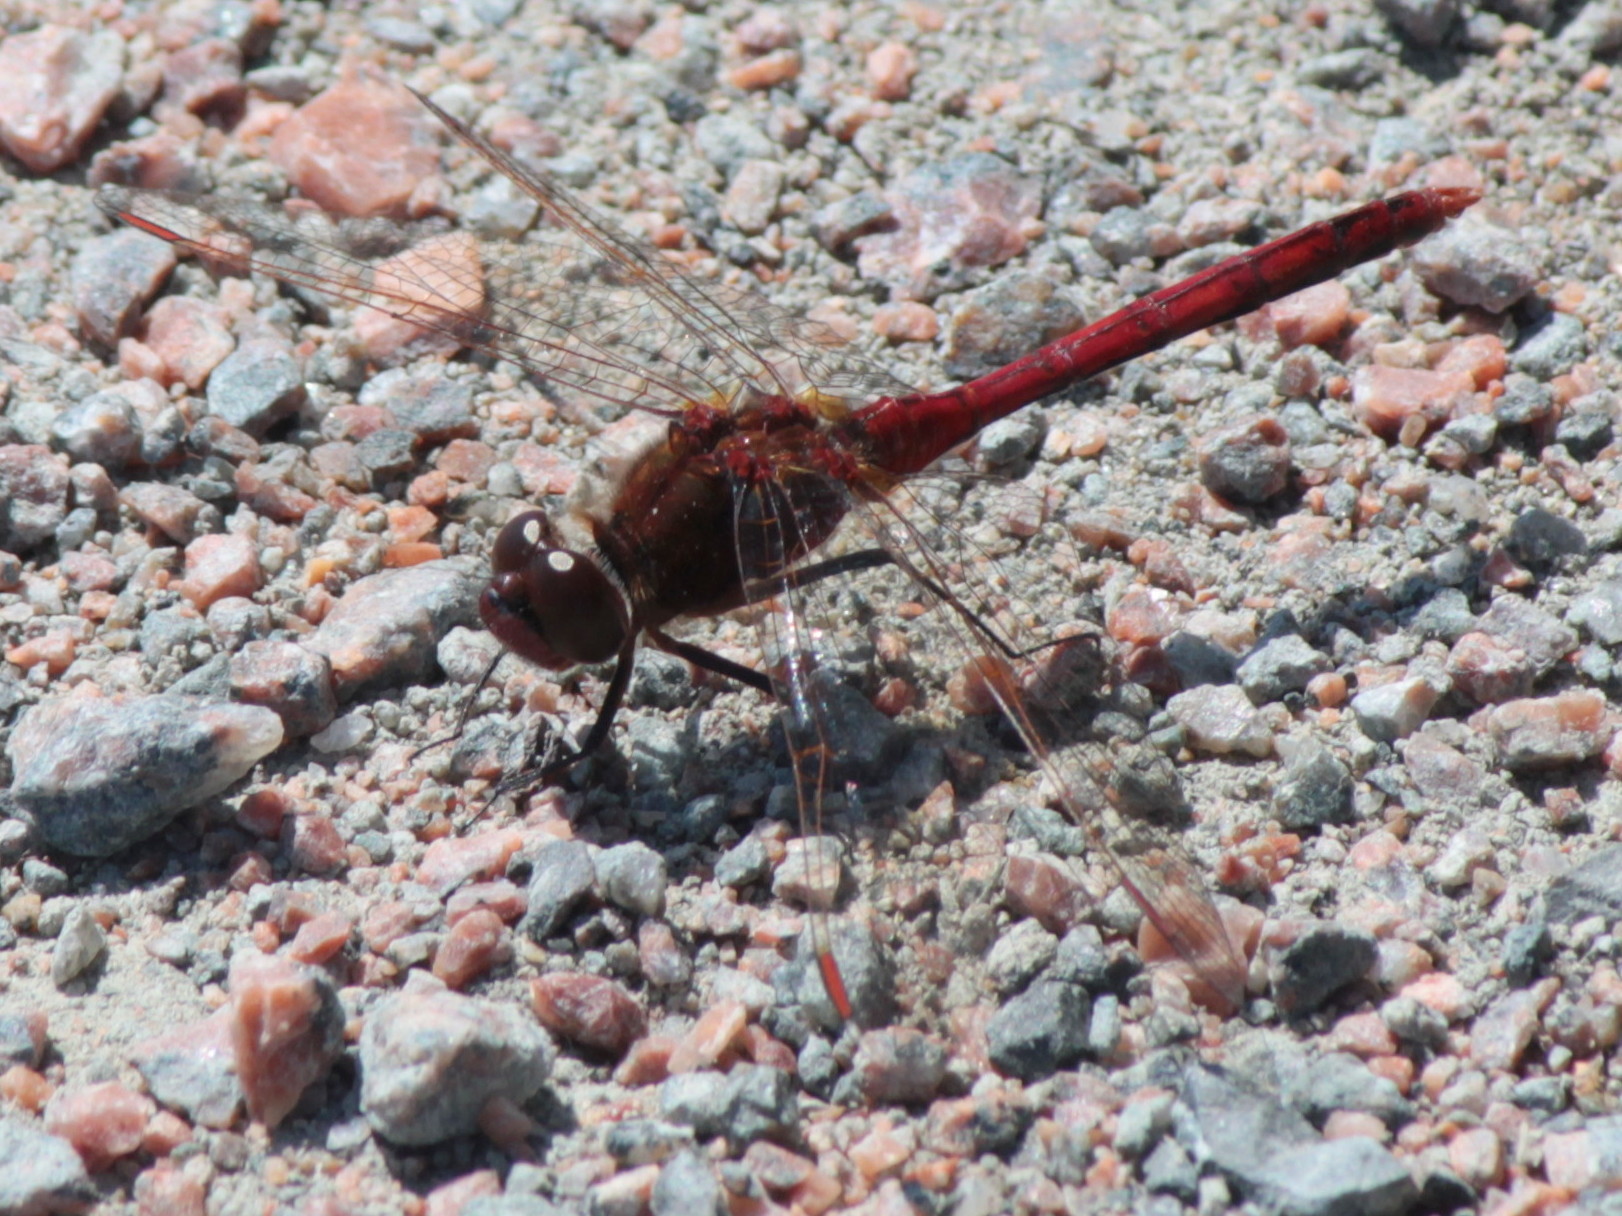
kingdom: Animalia
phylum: Arthropoda
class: Insecta
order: Odonata
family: Libellulidae
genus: Sympetrum
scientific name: Sympetrum costiferum
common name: Saffron-winged meadowhawk
